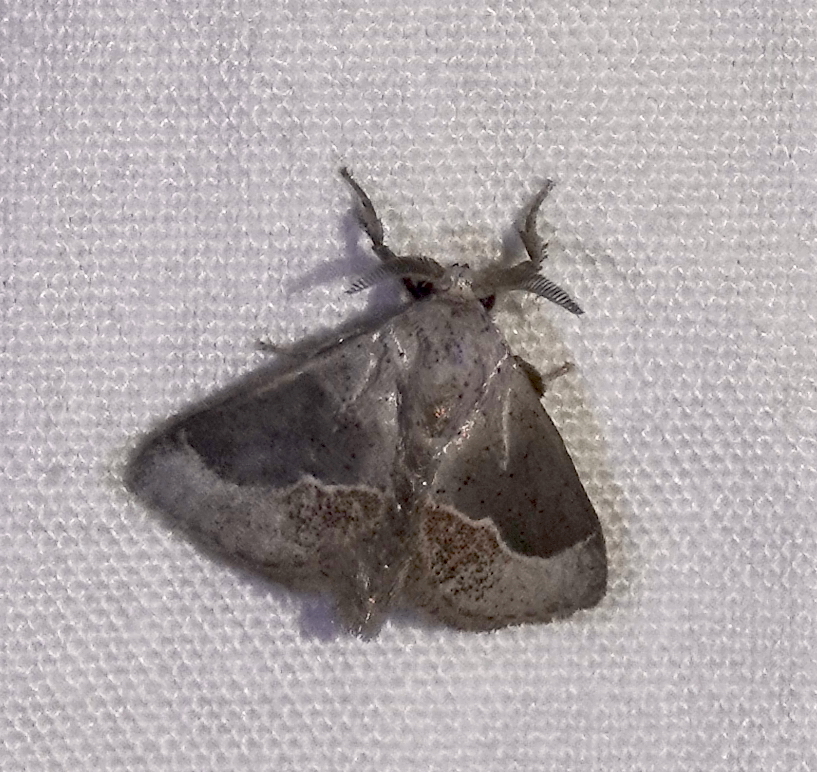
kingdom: Animalia
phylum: Arthropoda
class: Insecta
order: Lepidoptera
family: Limacodidae
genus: Epiperola
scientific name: Epiperola dertosa
